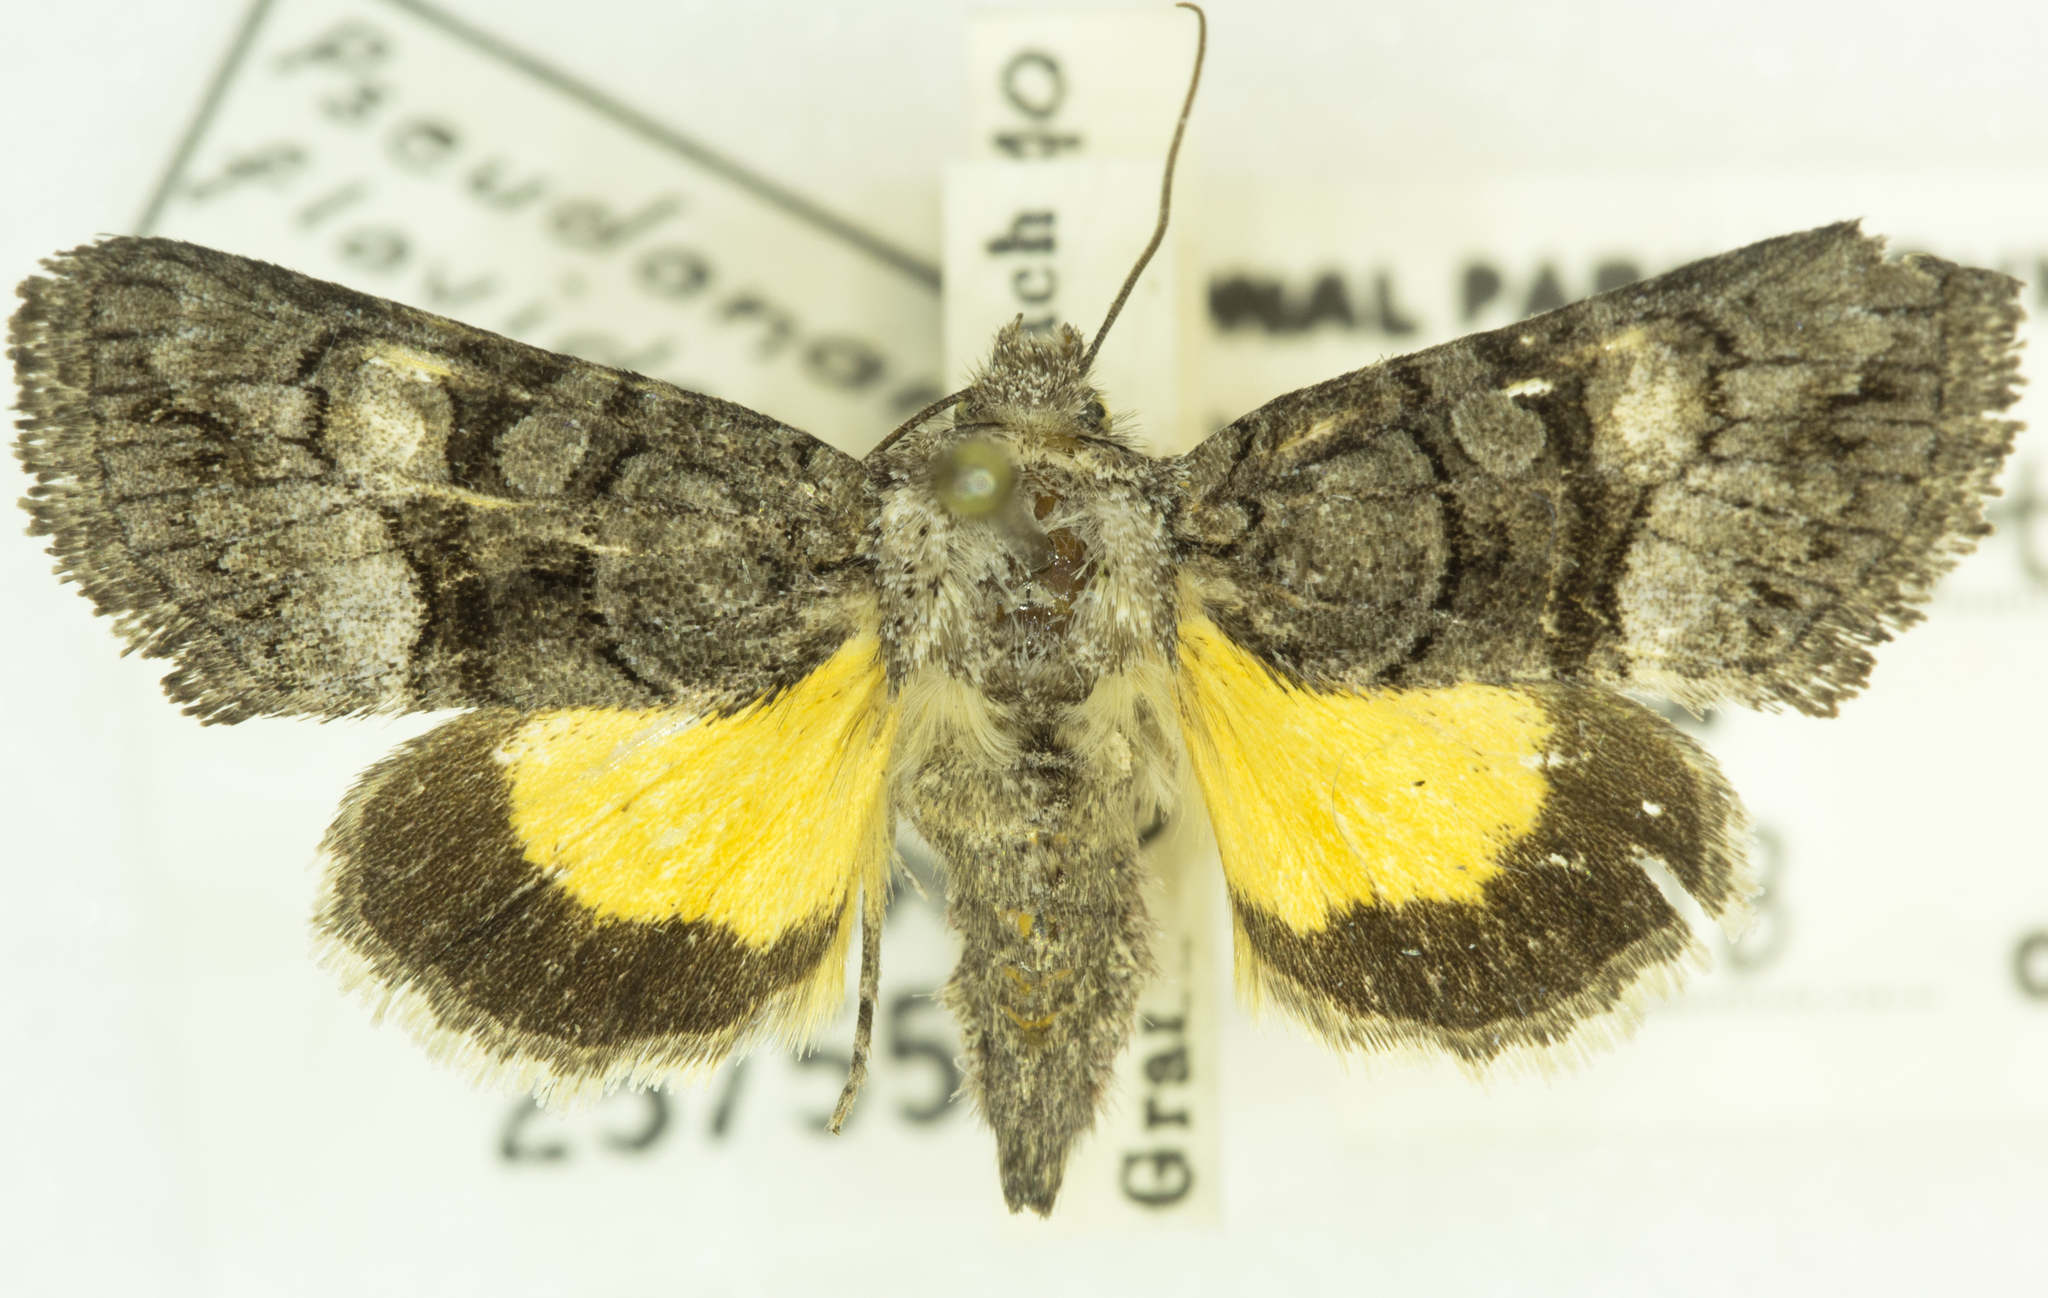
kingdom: Animalia
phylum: Arthropoda
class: Insecta
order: Lepidoptera
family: Noctuidae
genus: Pseudanarta
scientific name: Pseudanarta flavidens
